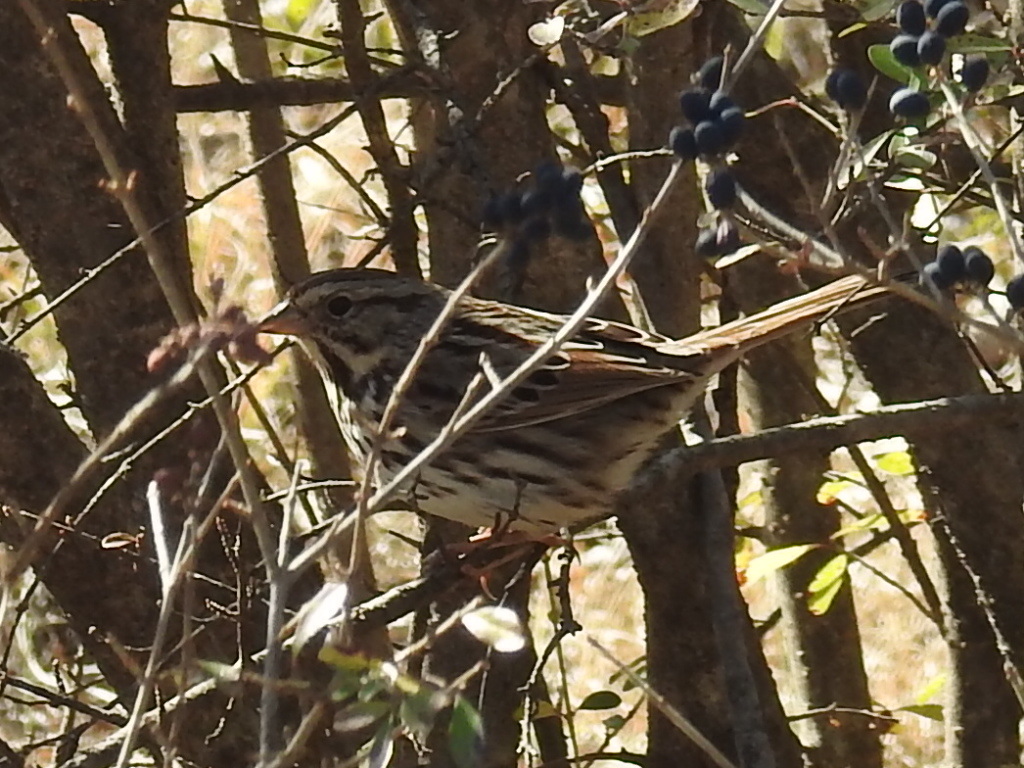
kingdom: Animalia
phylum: Chordata
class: Aves
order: Passeriformes
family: Passerellidae
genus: Melospiza
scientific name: Melospiza melodia
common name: Song sparrow
